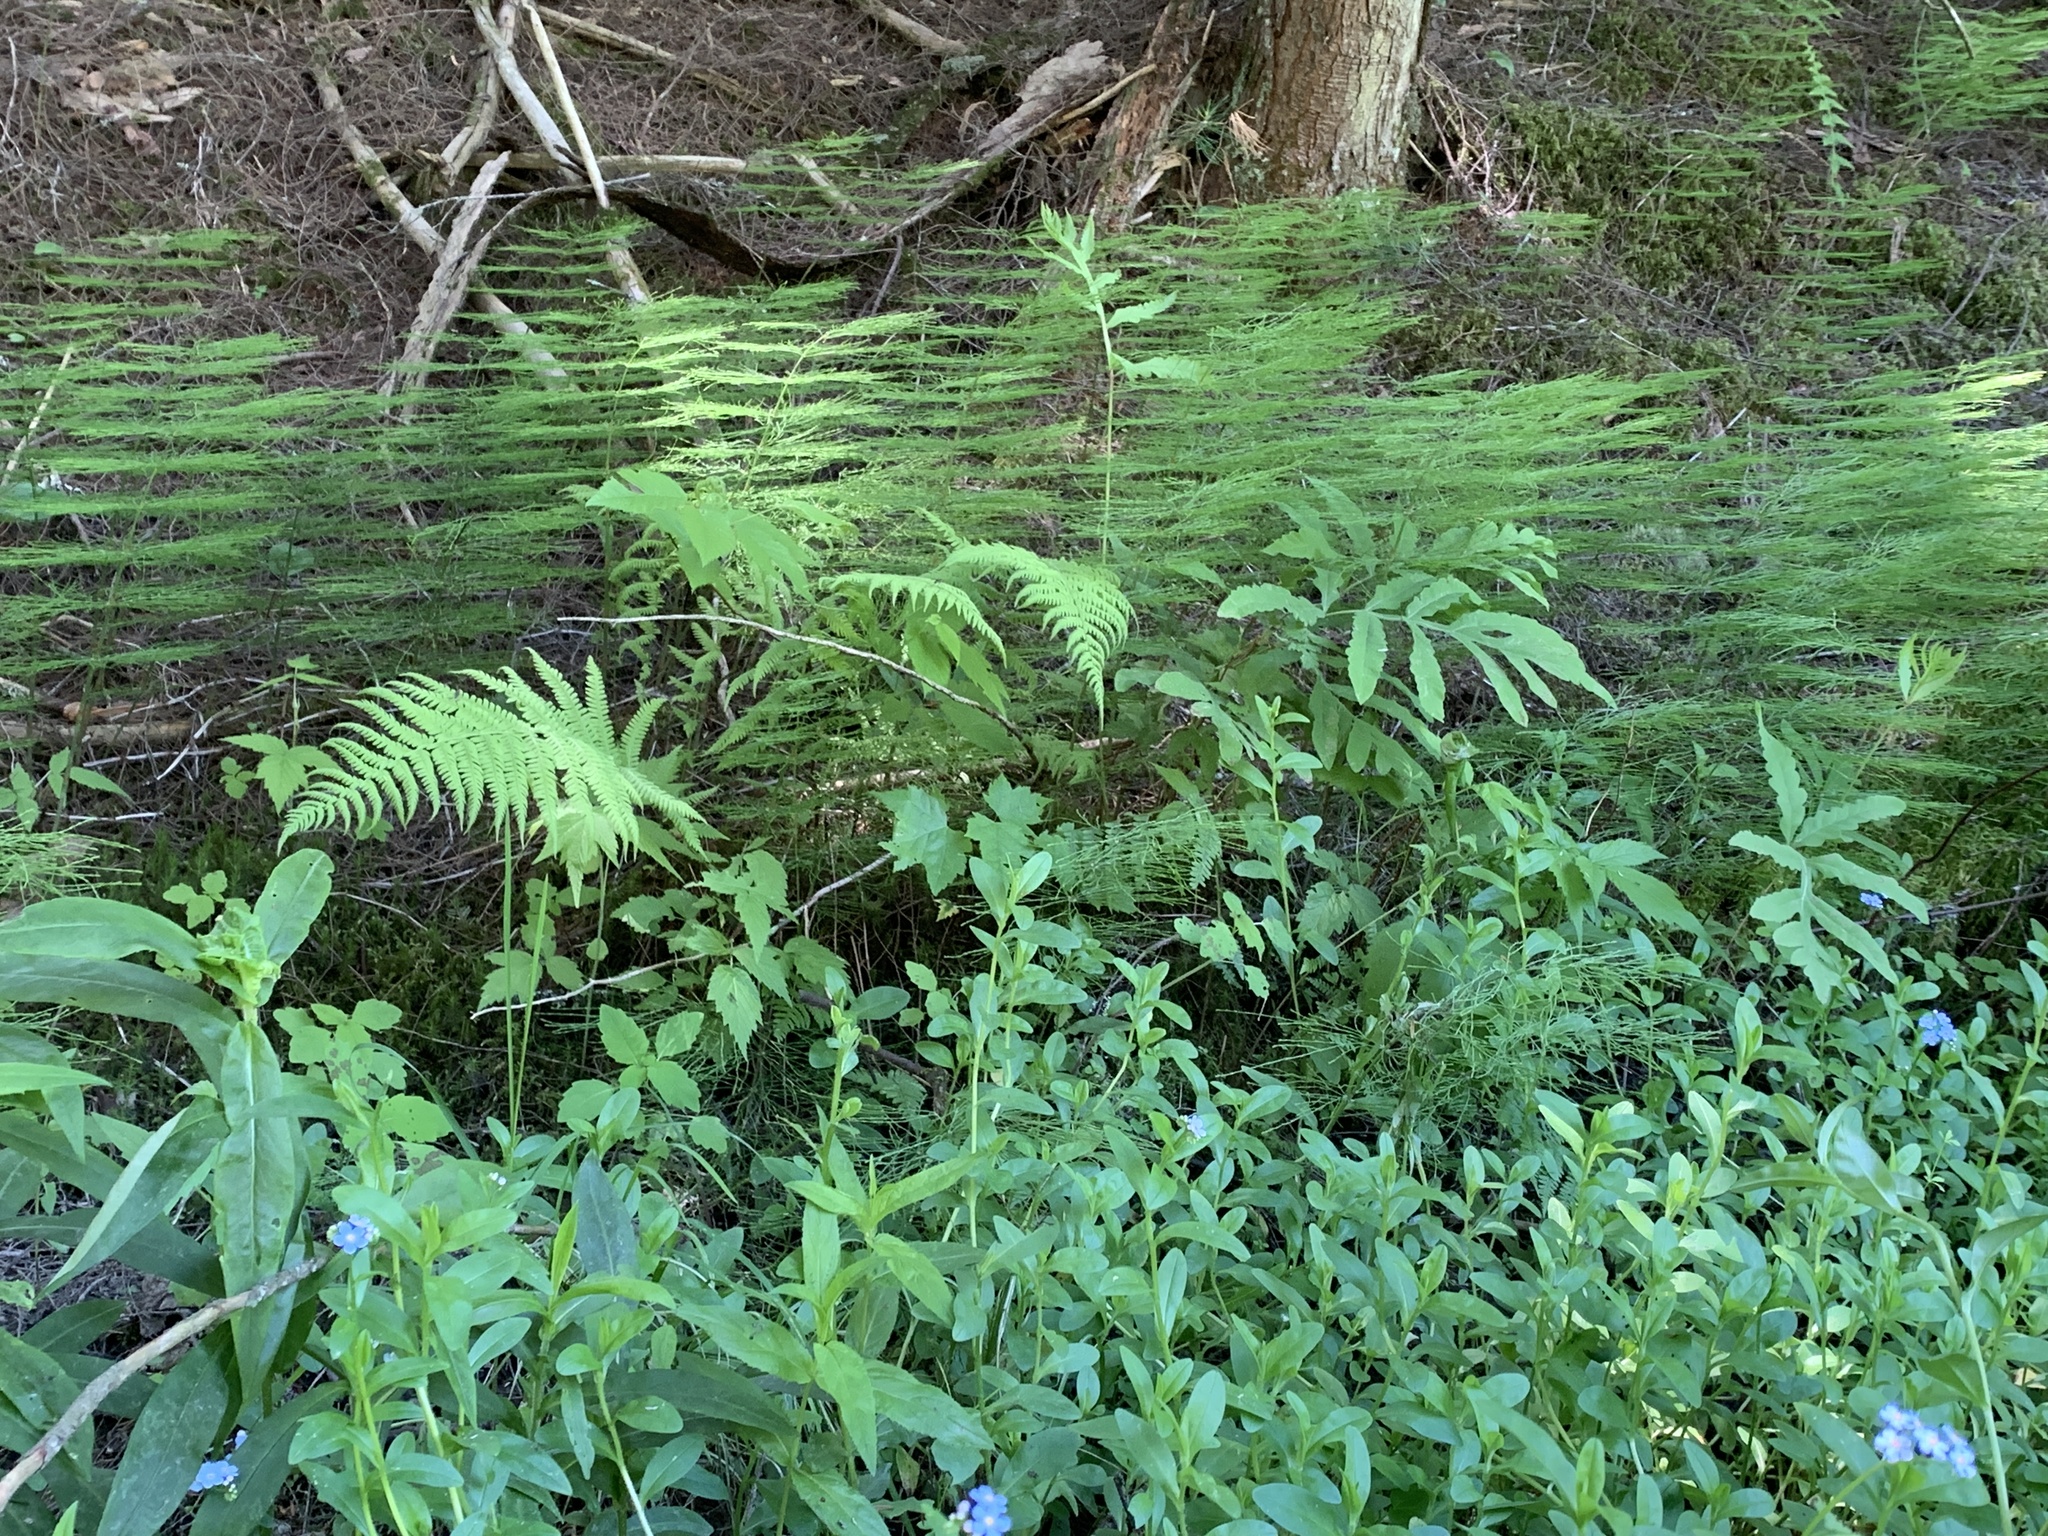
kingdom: Plantae
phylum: Tracheophyta
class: Polypodiopsida
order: Equisetales
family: Equisetaceae
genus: Equisetum
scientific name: Equisetum sylvaticum
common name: Wood horsetail
